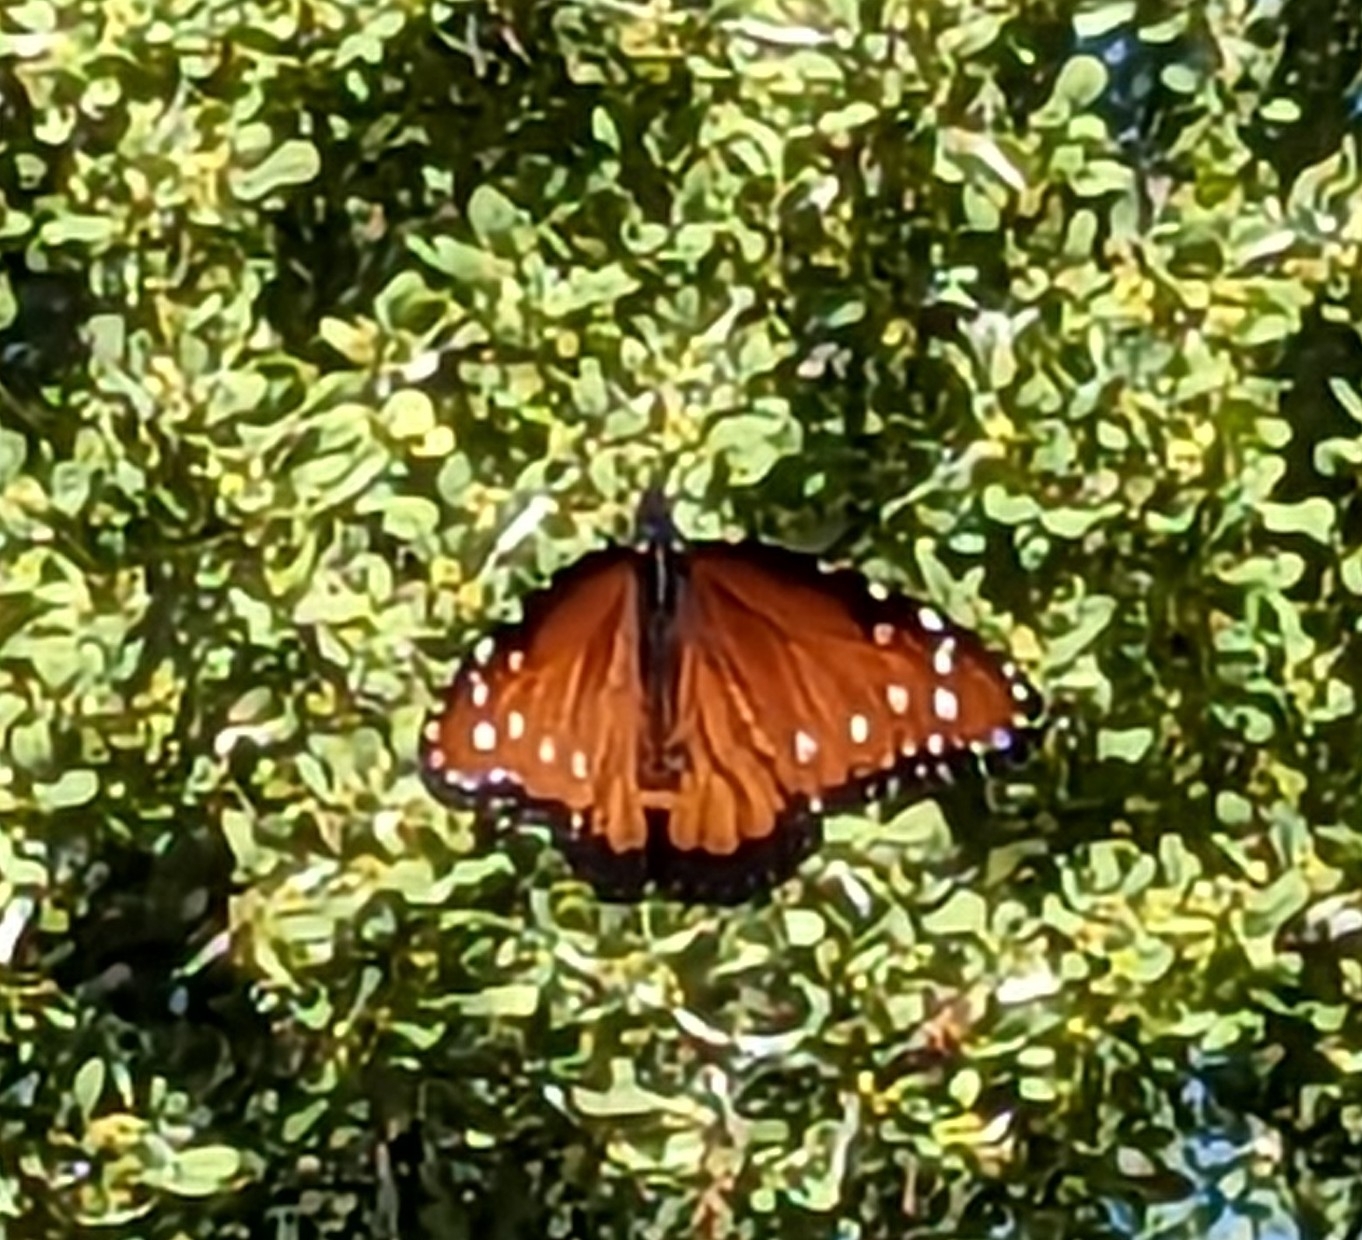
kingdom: Animalia
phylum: Arthropoda
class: Insecta
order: Lepidoptera
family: Nymphalidae
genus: Danaus
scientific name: Danaus gilippus
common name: Queen
